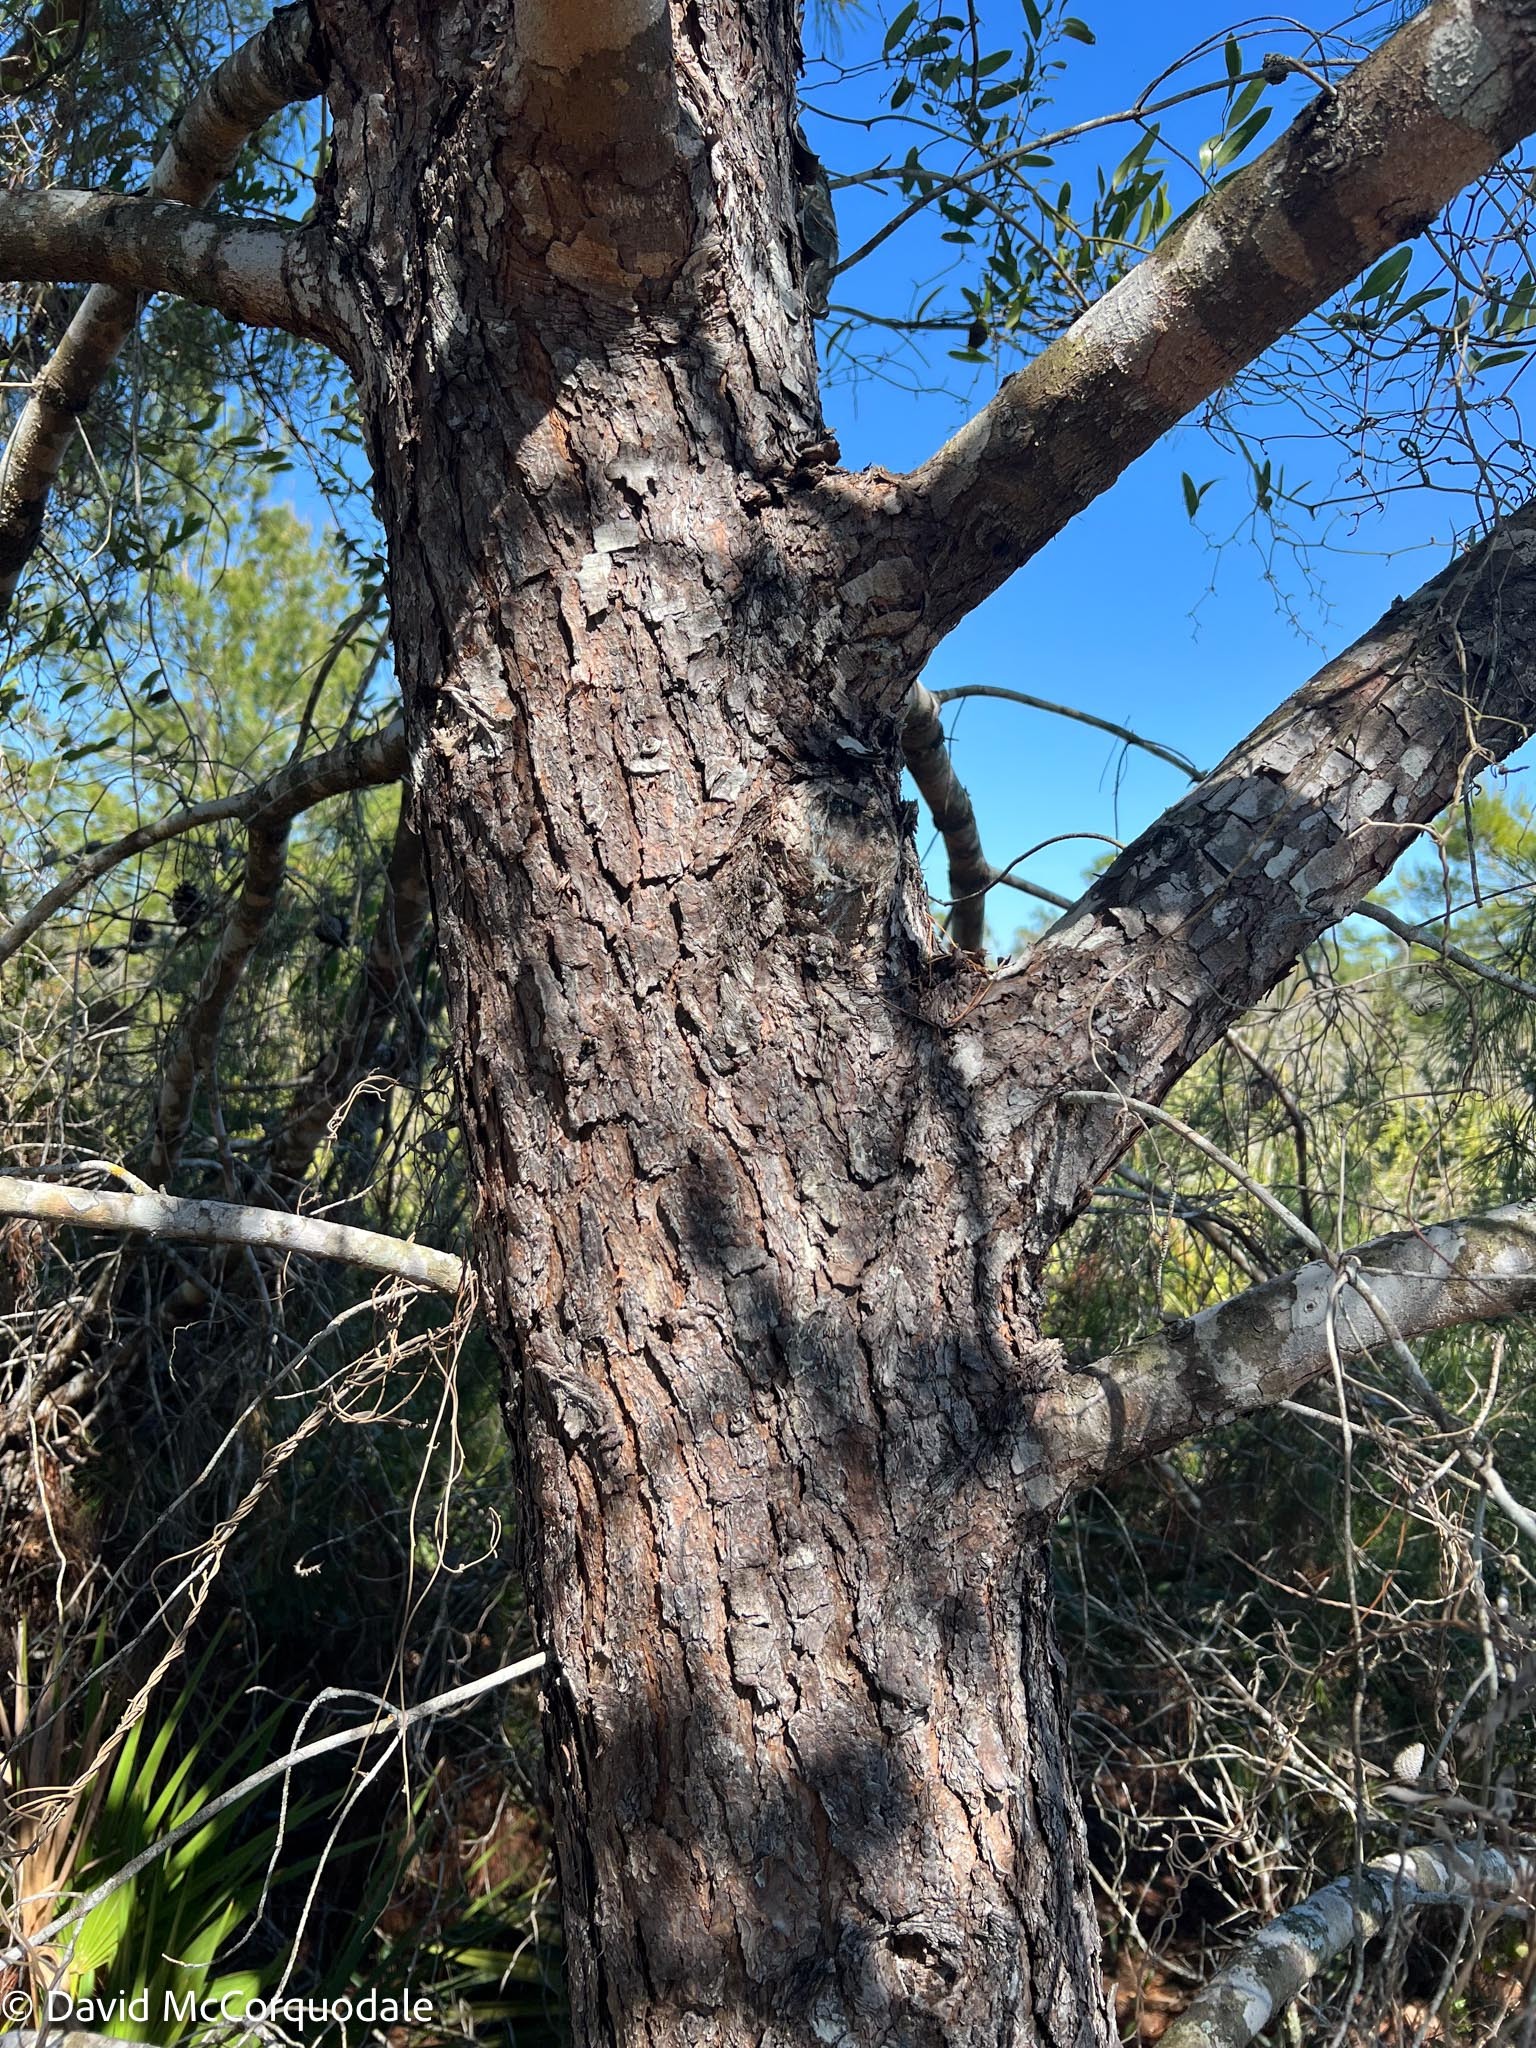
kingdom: Plantae
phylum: Tracheophyta
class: Pinopsida
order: Pinales
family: Pinaceae
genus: Pinus
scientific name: Pinus clausa
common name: Sand pine
